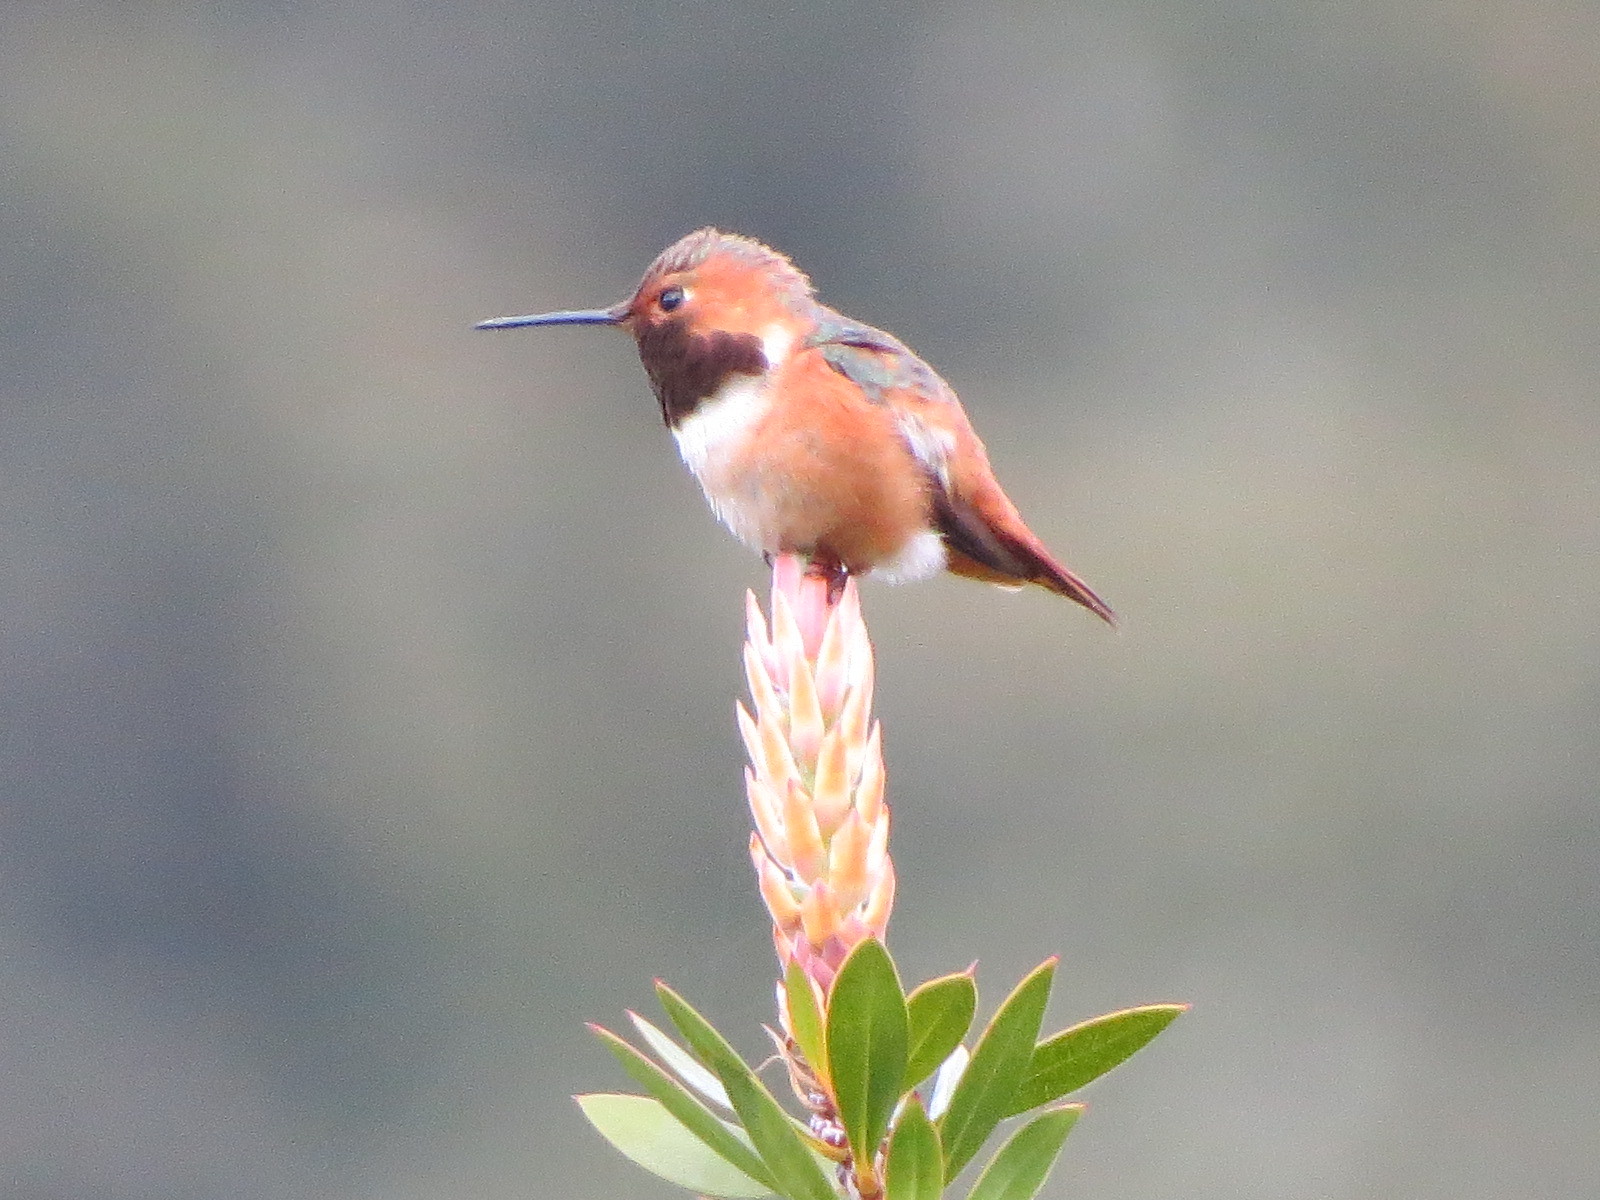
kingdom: Animalia
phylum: Chordata
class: Aves
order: Apodiformes
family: Trochilidae
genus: Selasphorus
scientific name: Selasphorus sasin
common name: Allen's hummingbird
